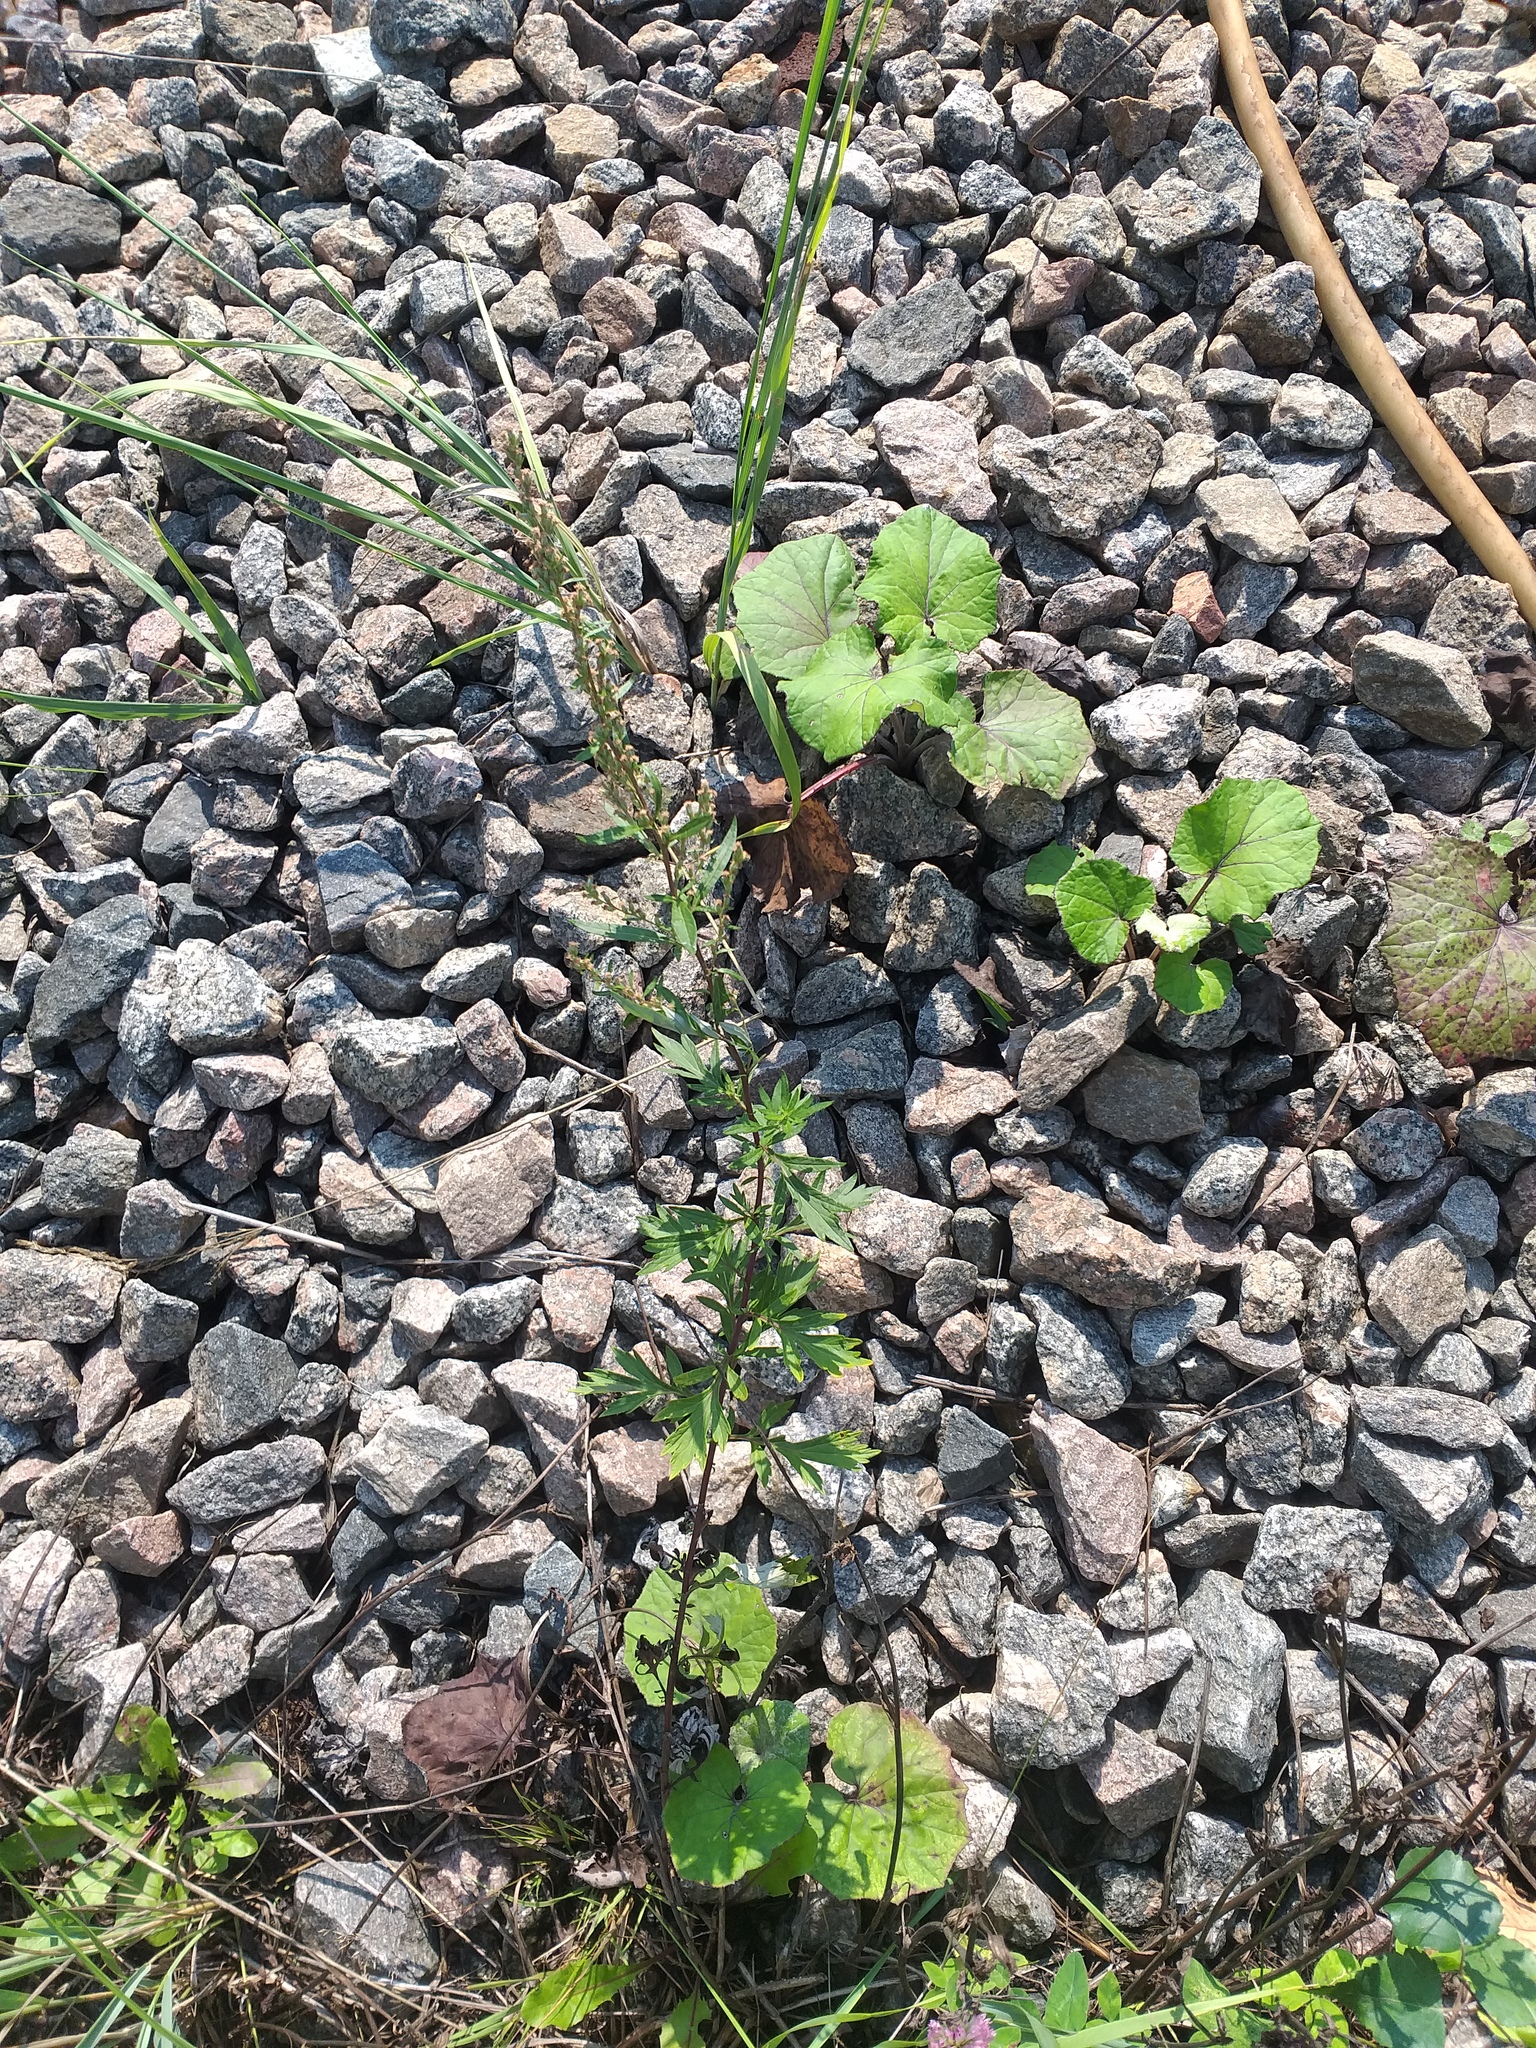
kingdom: Plantae
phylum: Tracheophyta
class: Magnoliopsida
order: Asterales
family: Asteraceae
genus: Artemisia
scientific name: Artemisia vulgaris
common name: Mugwort
